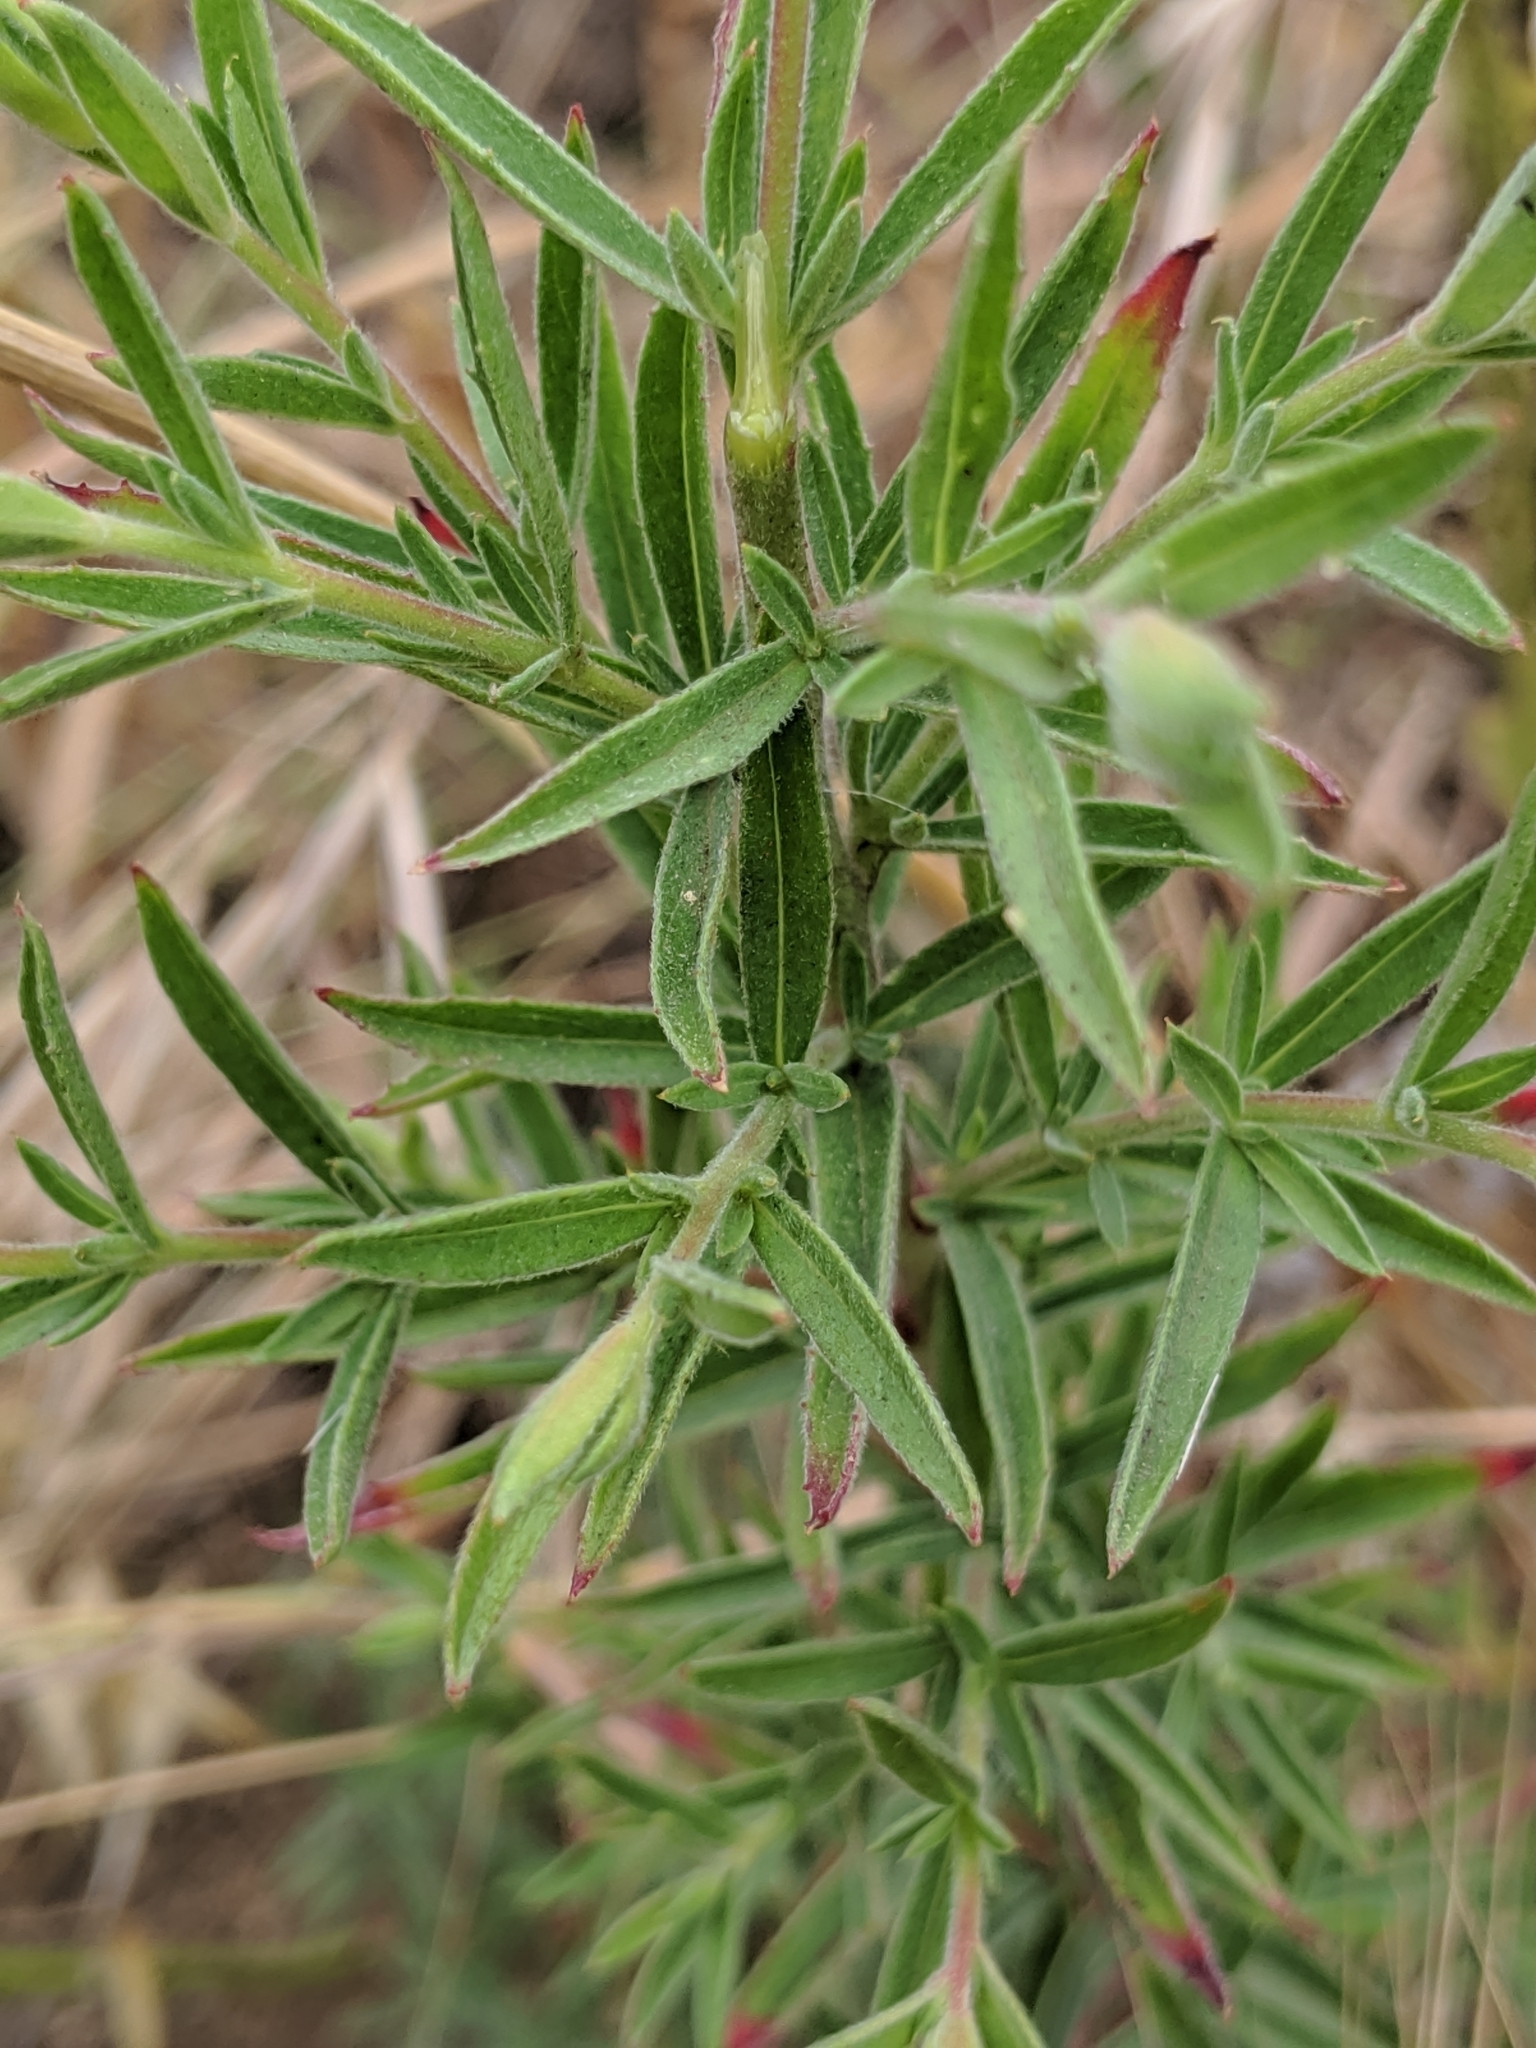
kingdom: Plantae
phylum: Tracheophyta
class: Magnoliopsida
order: Myrtales
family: Onagraceae
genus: Epilobium
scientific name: Epilobium canum
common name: California-fuchsia
